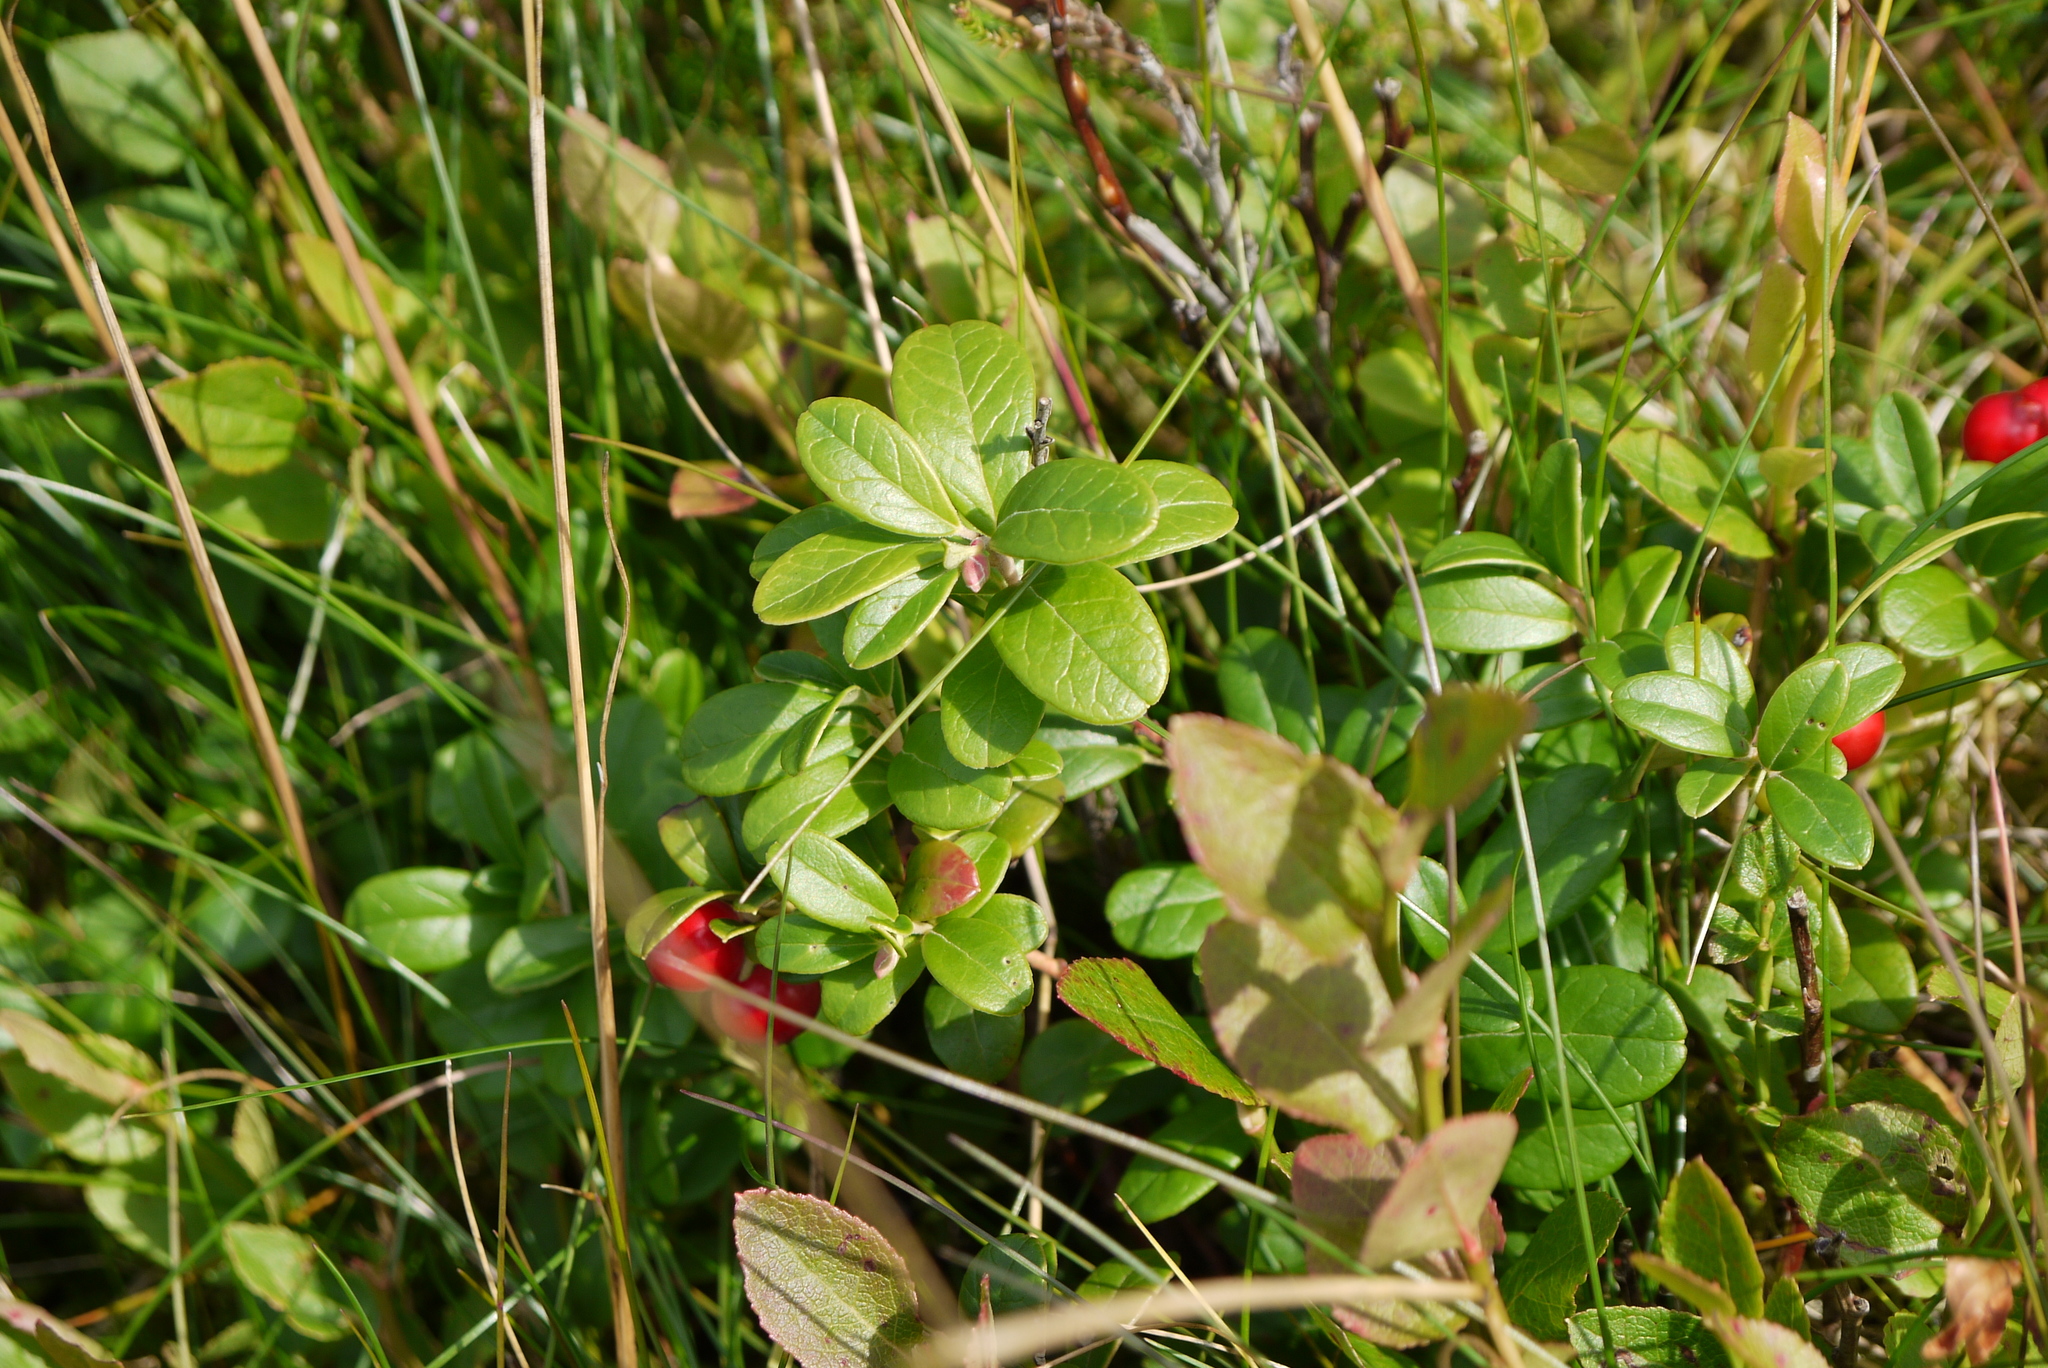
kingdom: Plantae
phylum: Tracheophyta
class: Magnoliopsida
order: Ericales
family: Ericaceae
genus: Vaccinium
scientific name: Vaccinium vitis-idaea
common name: Cowberry
